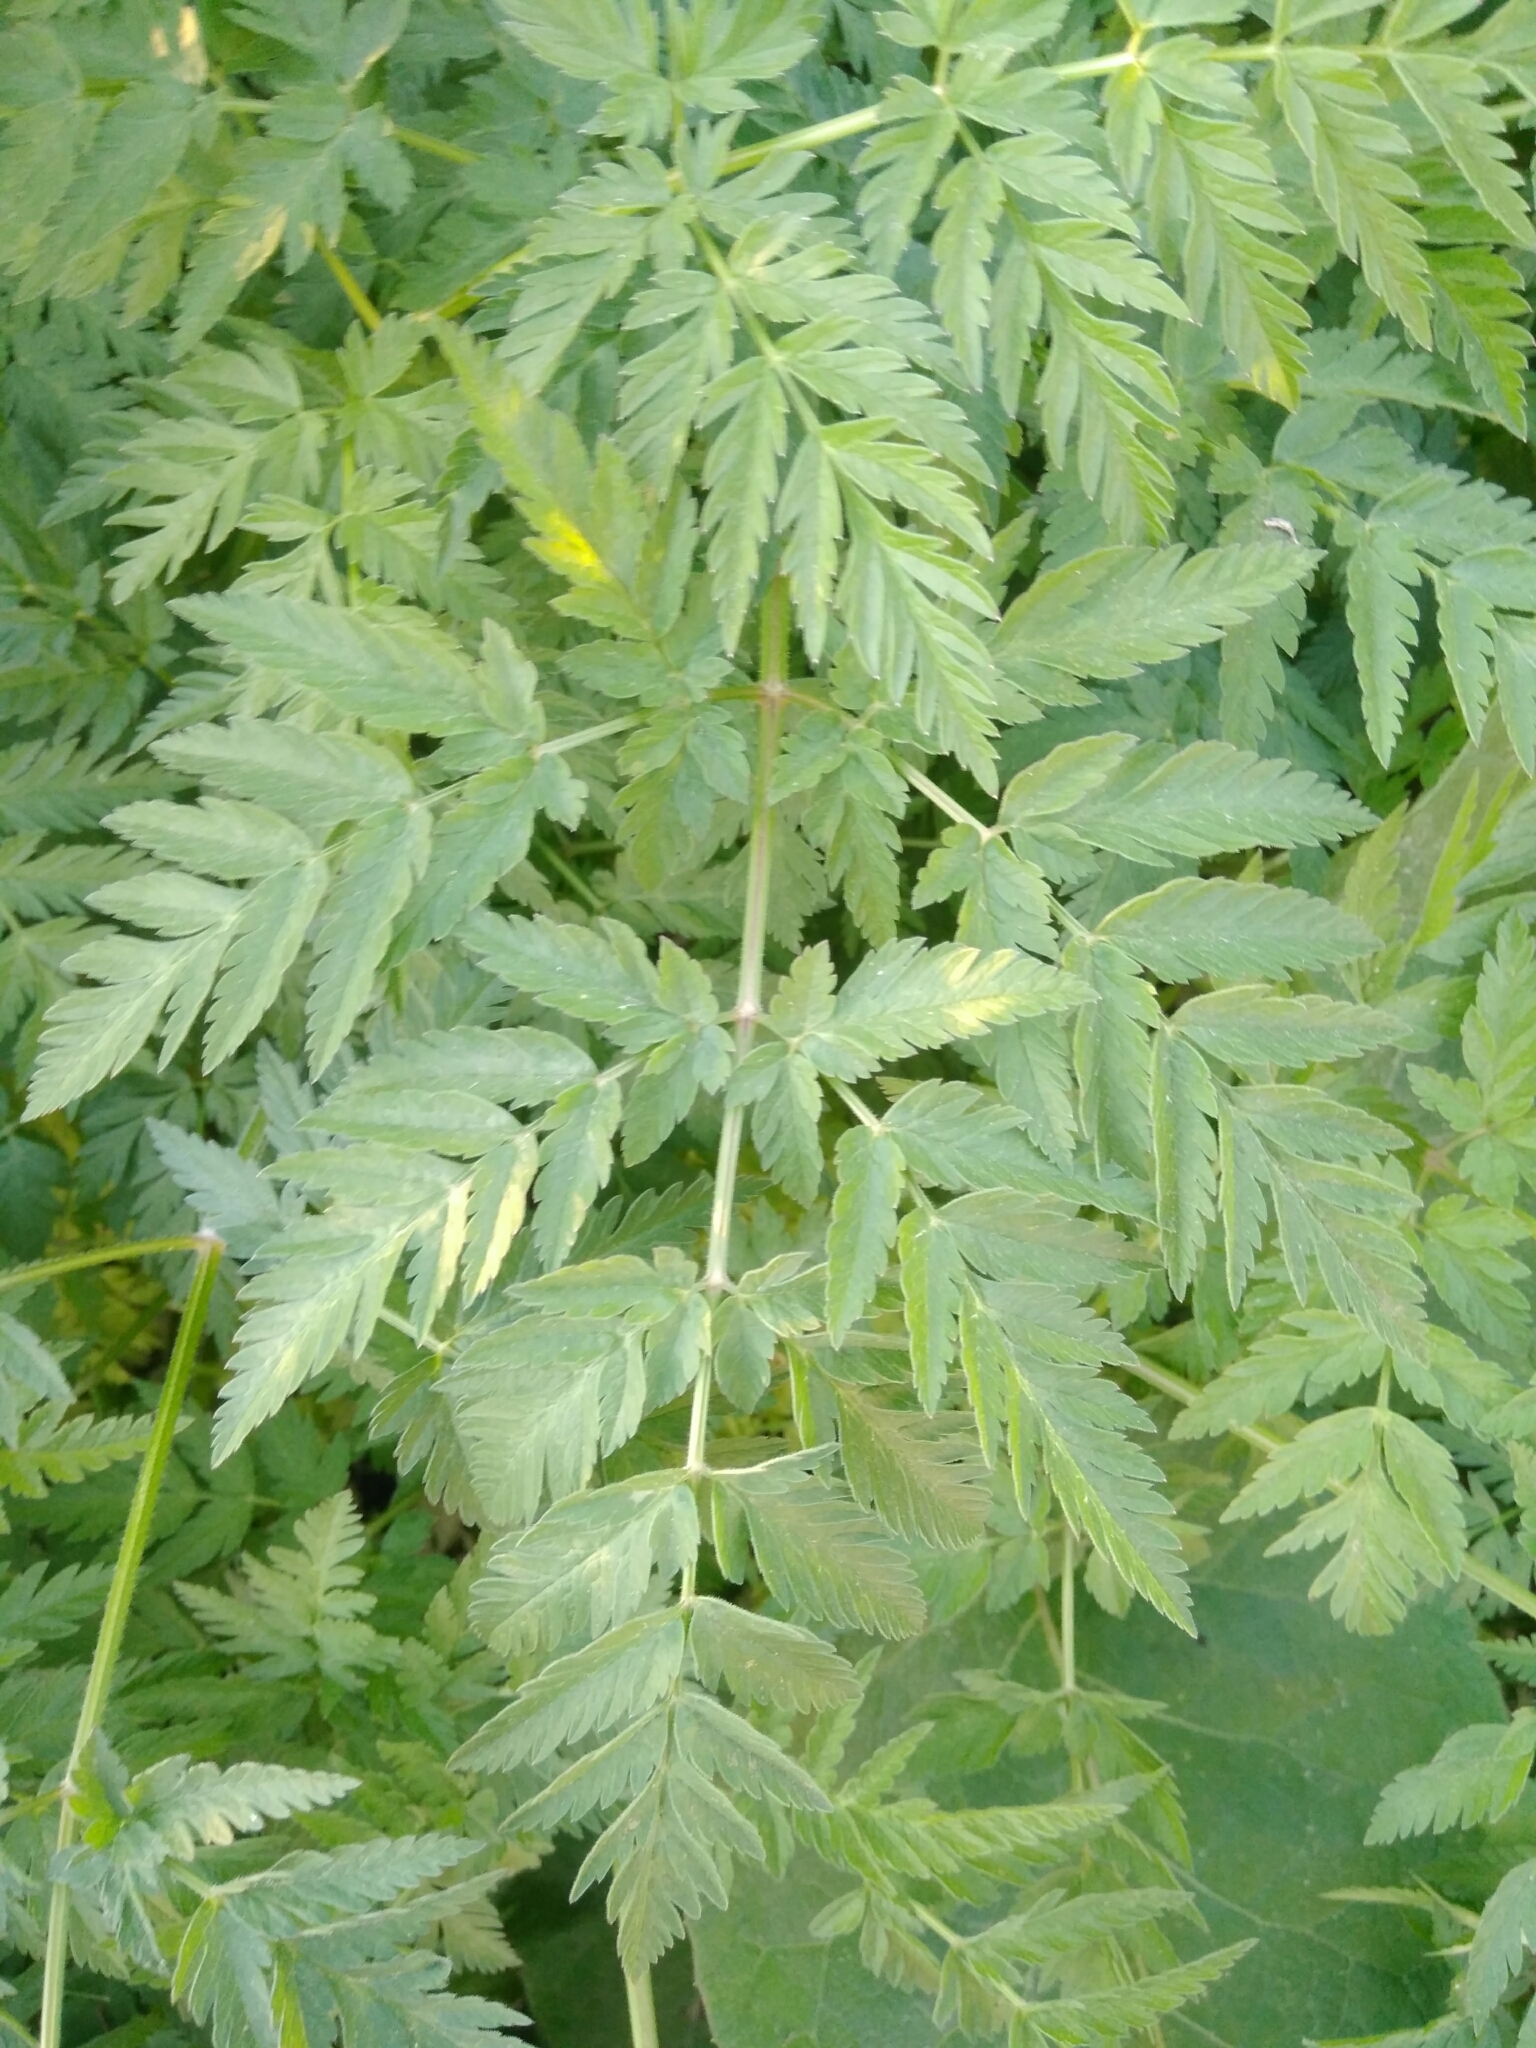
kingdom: Plantae
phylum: Tracheophyta
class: Magnoliopsida
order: Apiales
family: Apiaceae
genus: Anthriscus
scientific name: Anthriscus sylvestris
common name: Cow parsley
